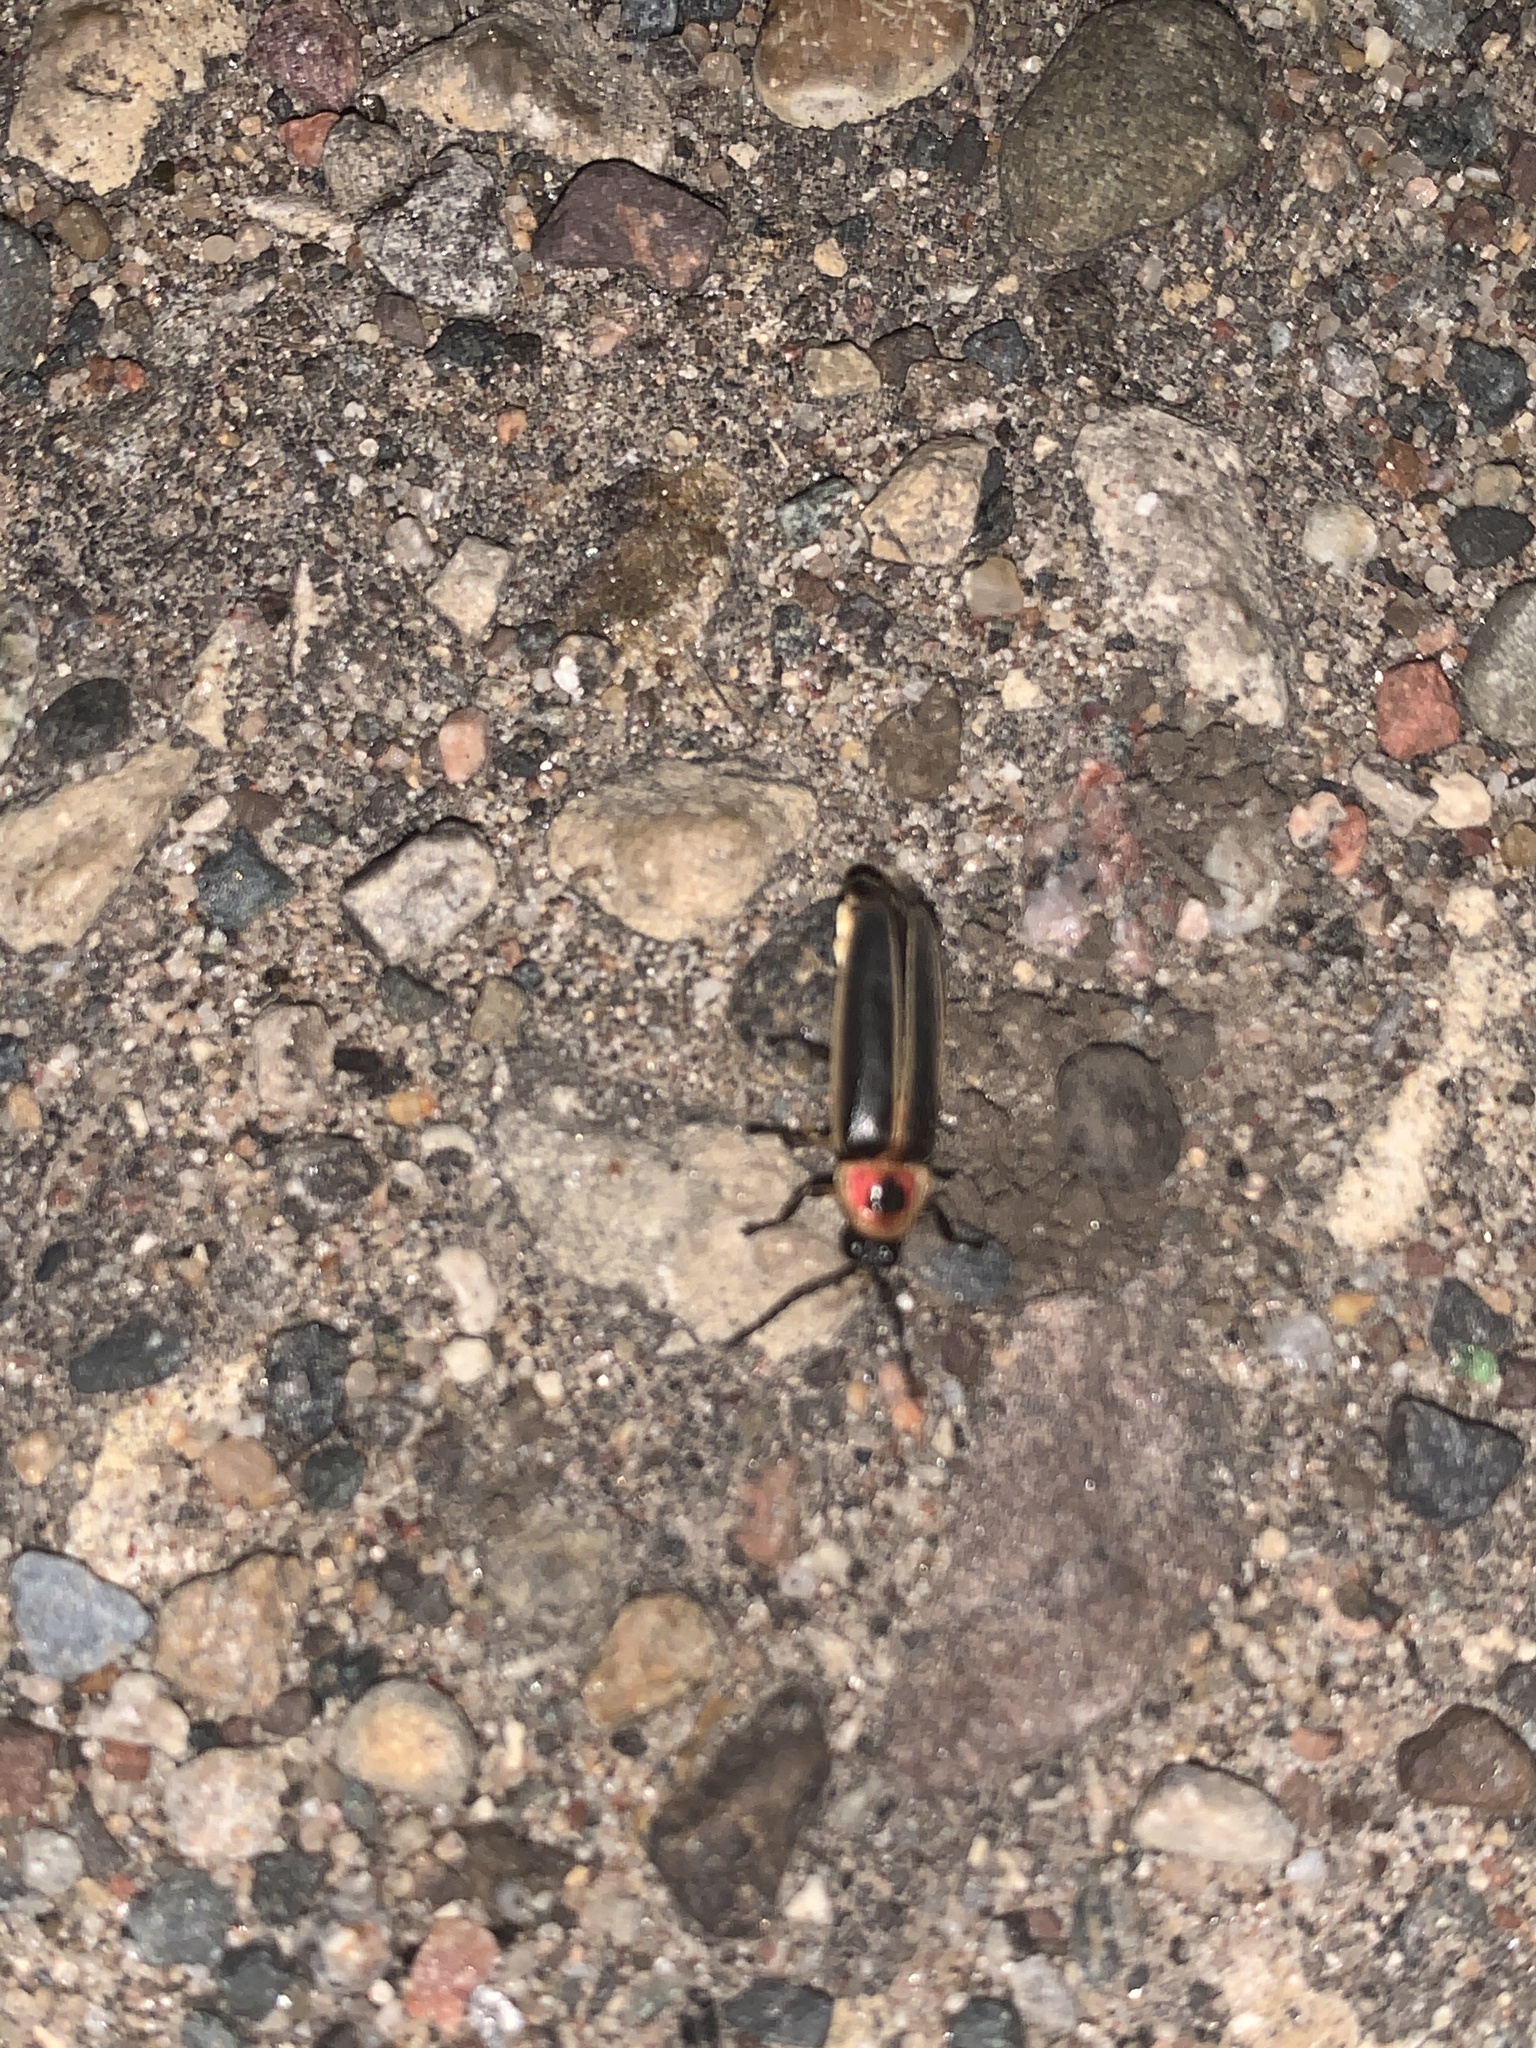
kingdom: Animalia
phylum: Arthropoda
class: Insecta
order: Coleoptera
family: Lampyridae
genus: Photinus
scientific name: Photinus pyralis
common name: Big dipper firefly
